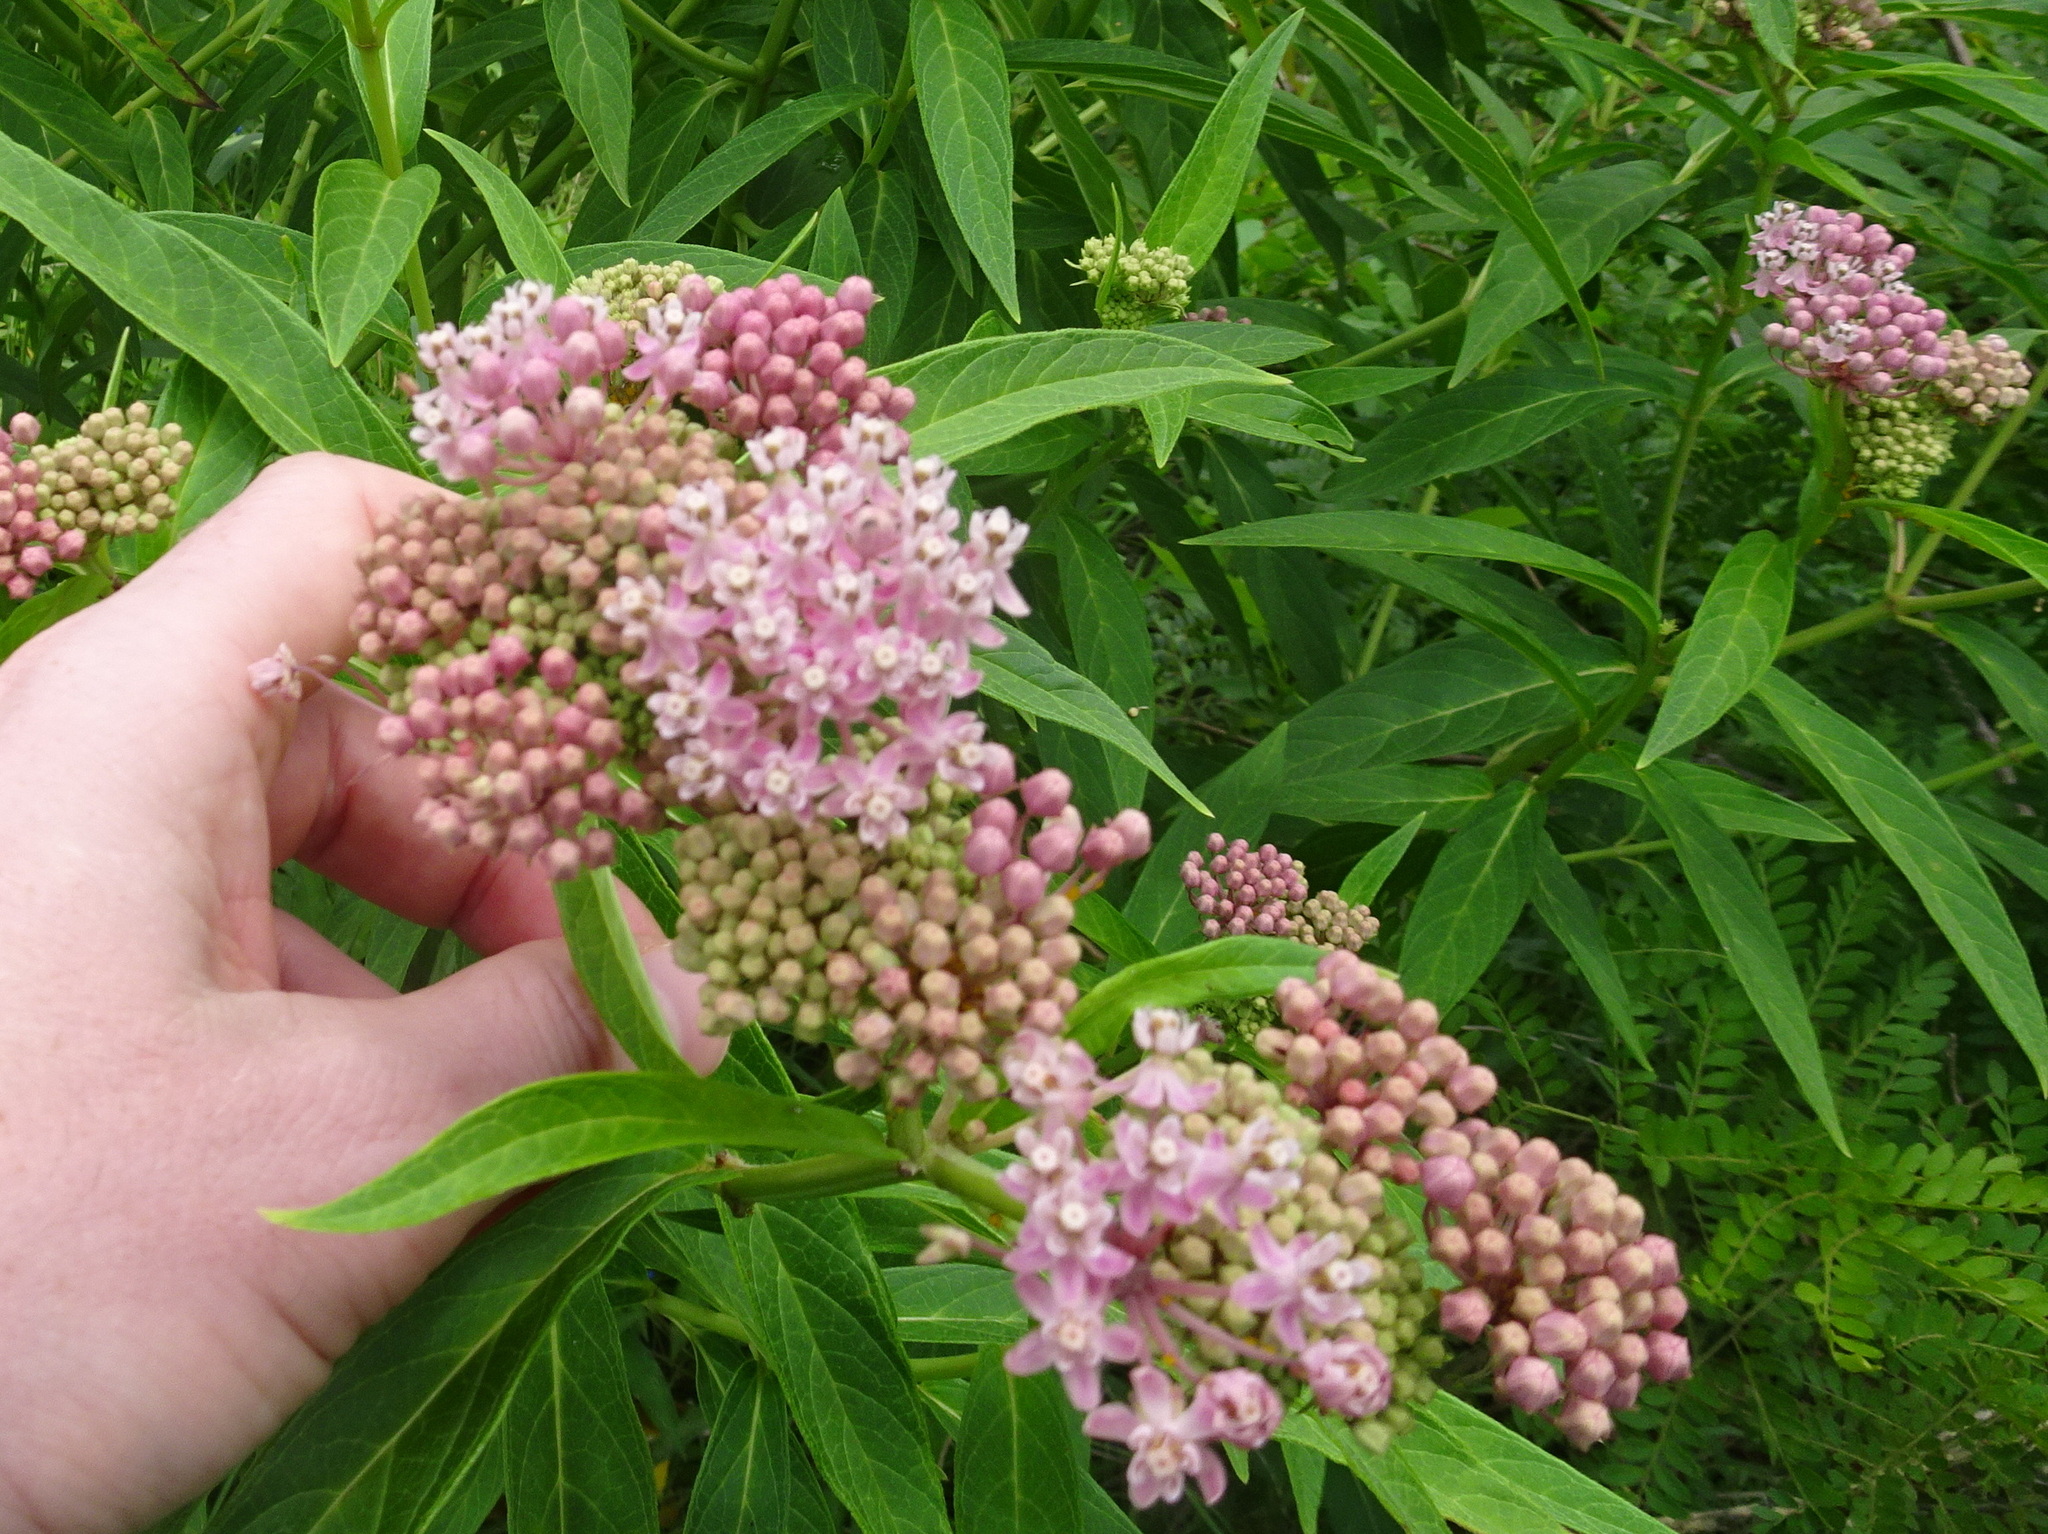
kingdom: Plantae
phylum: Tracheophyta
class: Magnoliopsida
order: Gentianales
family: Apocynaceae
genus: Asclepias
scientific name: Asclepias incarnata
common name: Swamp milkweed
